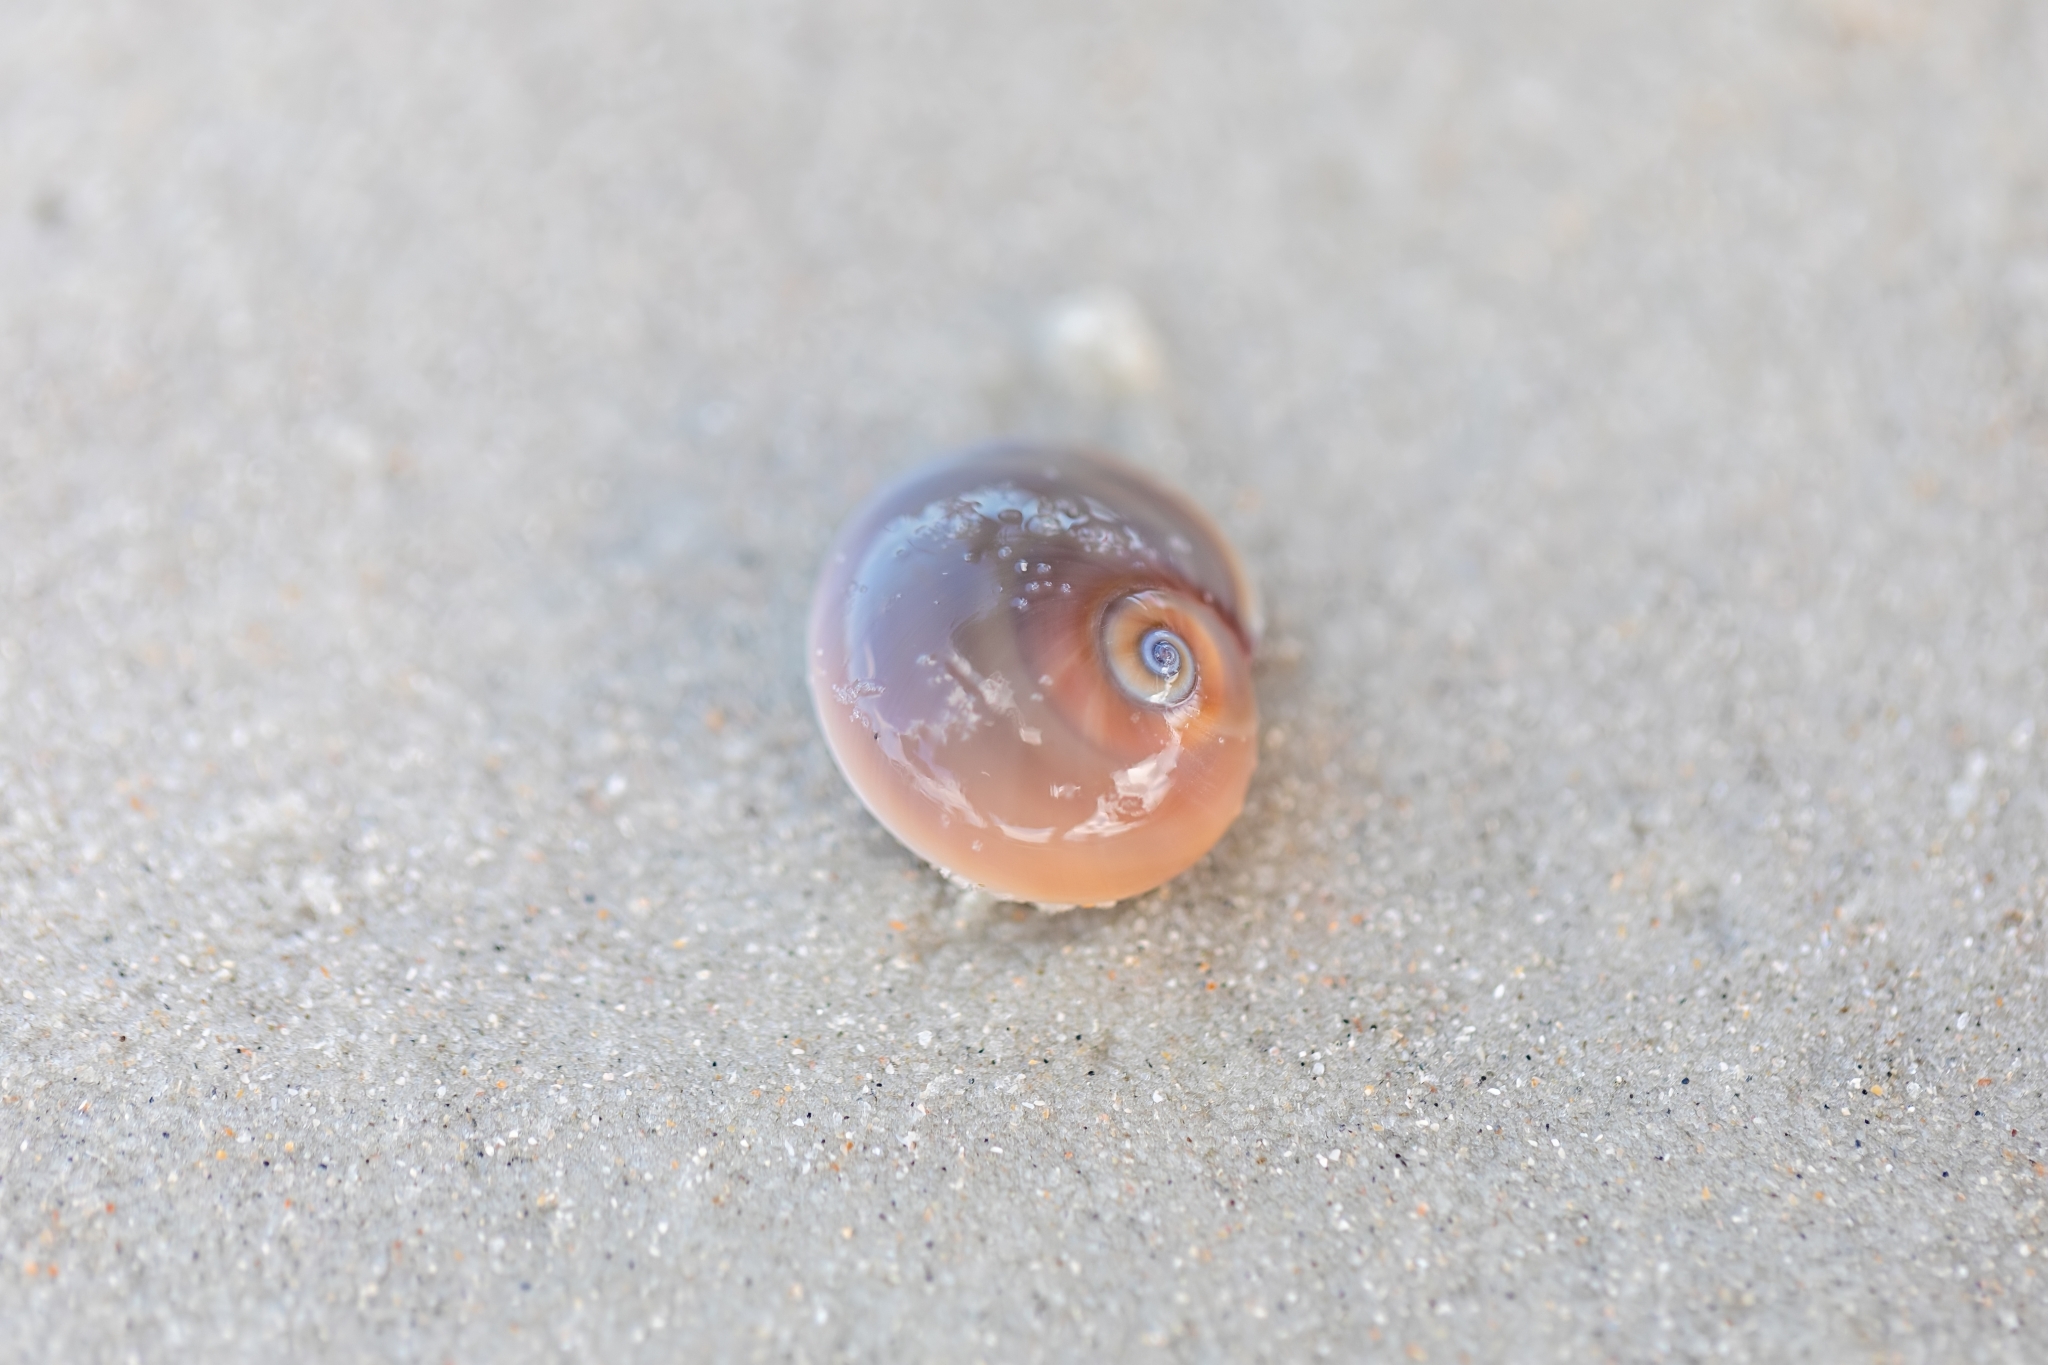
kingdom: Animalia
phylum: Mollusca
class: Gastropoda
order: Littorinimorpha
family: Naticidae
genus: Neverita
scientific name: Neverita duplicata
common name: Lobed moonsnail
